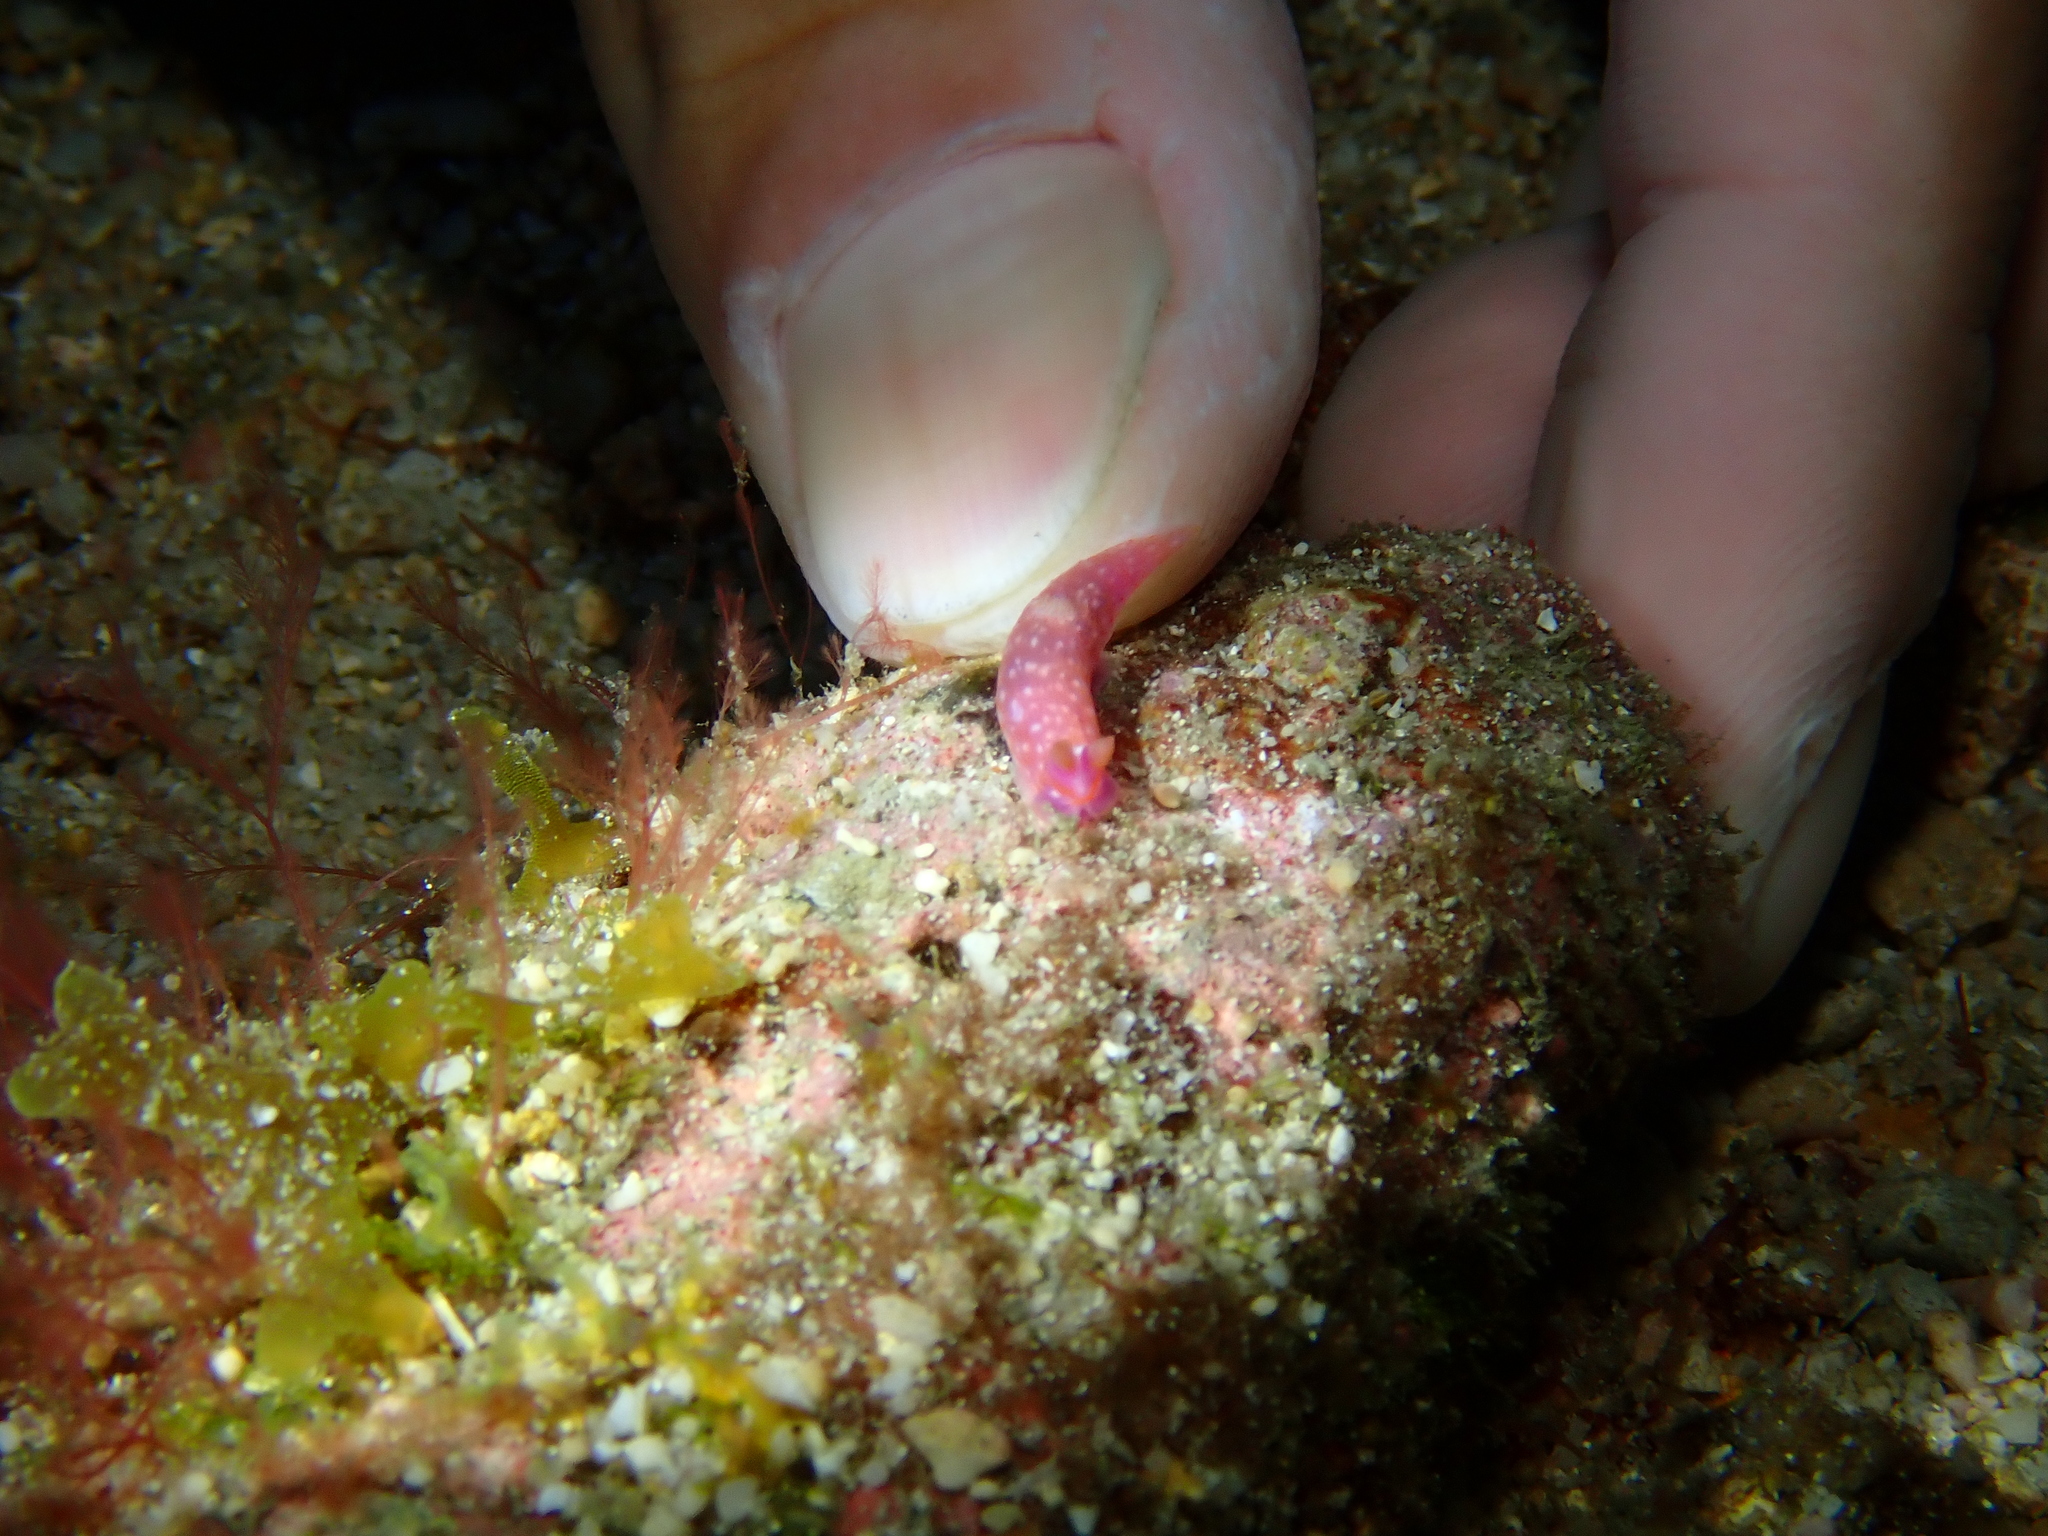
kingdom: Animalia
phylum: Mollusca
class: Gastropoda
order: Nudibranchia
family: Polyceridae
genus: Gymnodoris
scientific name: Gymnodoris
